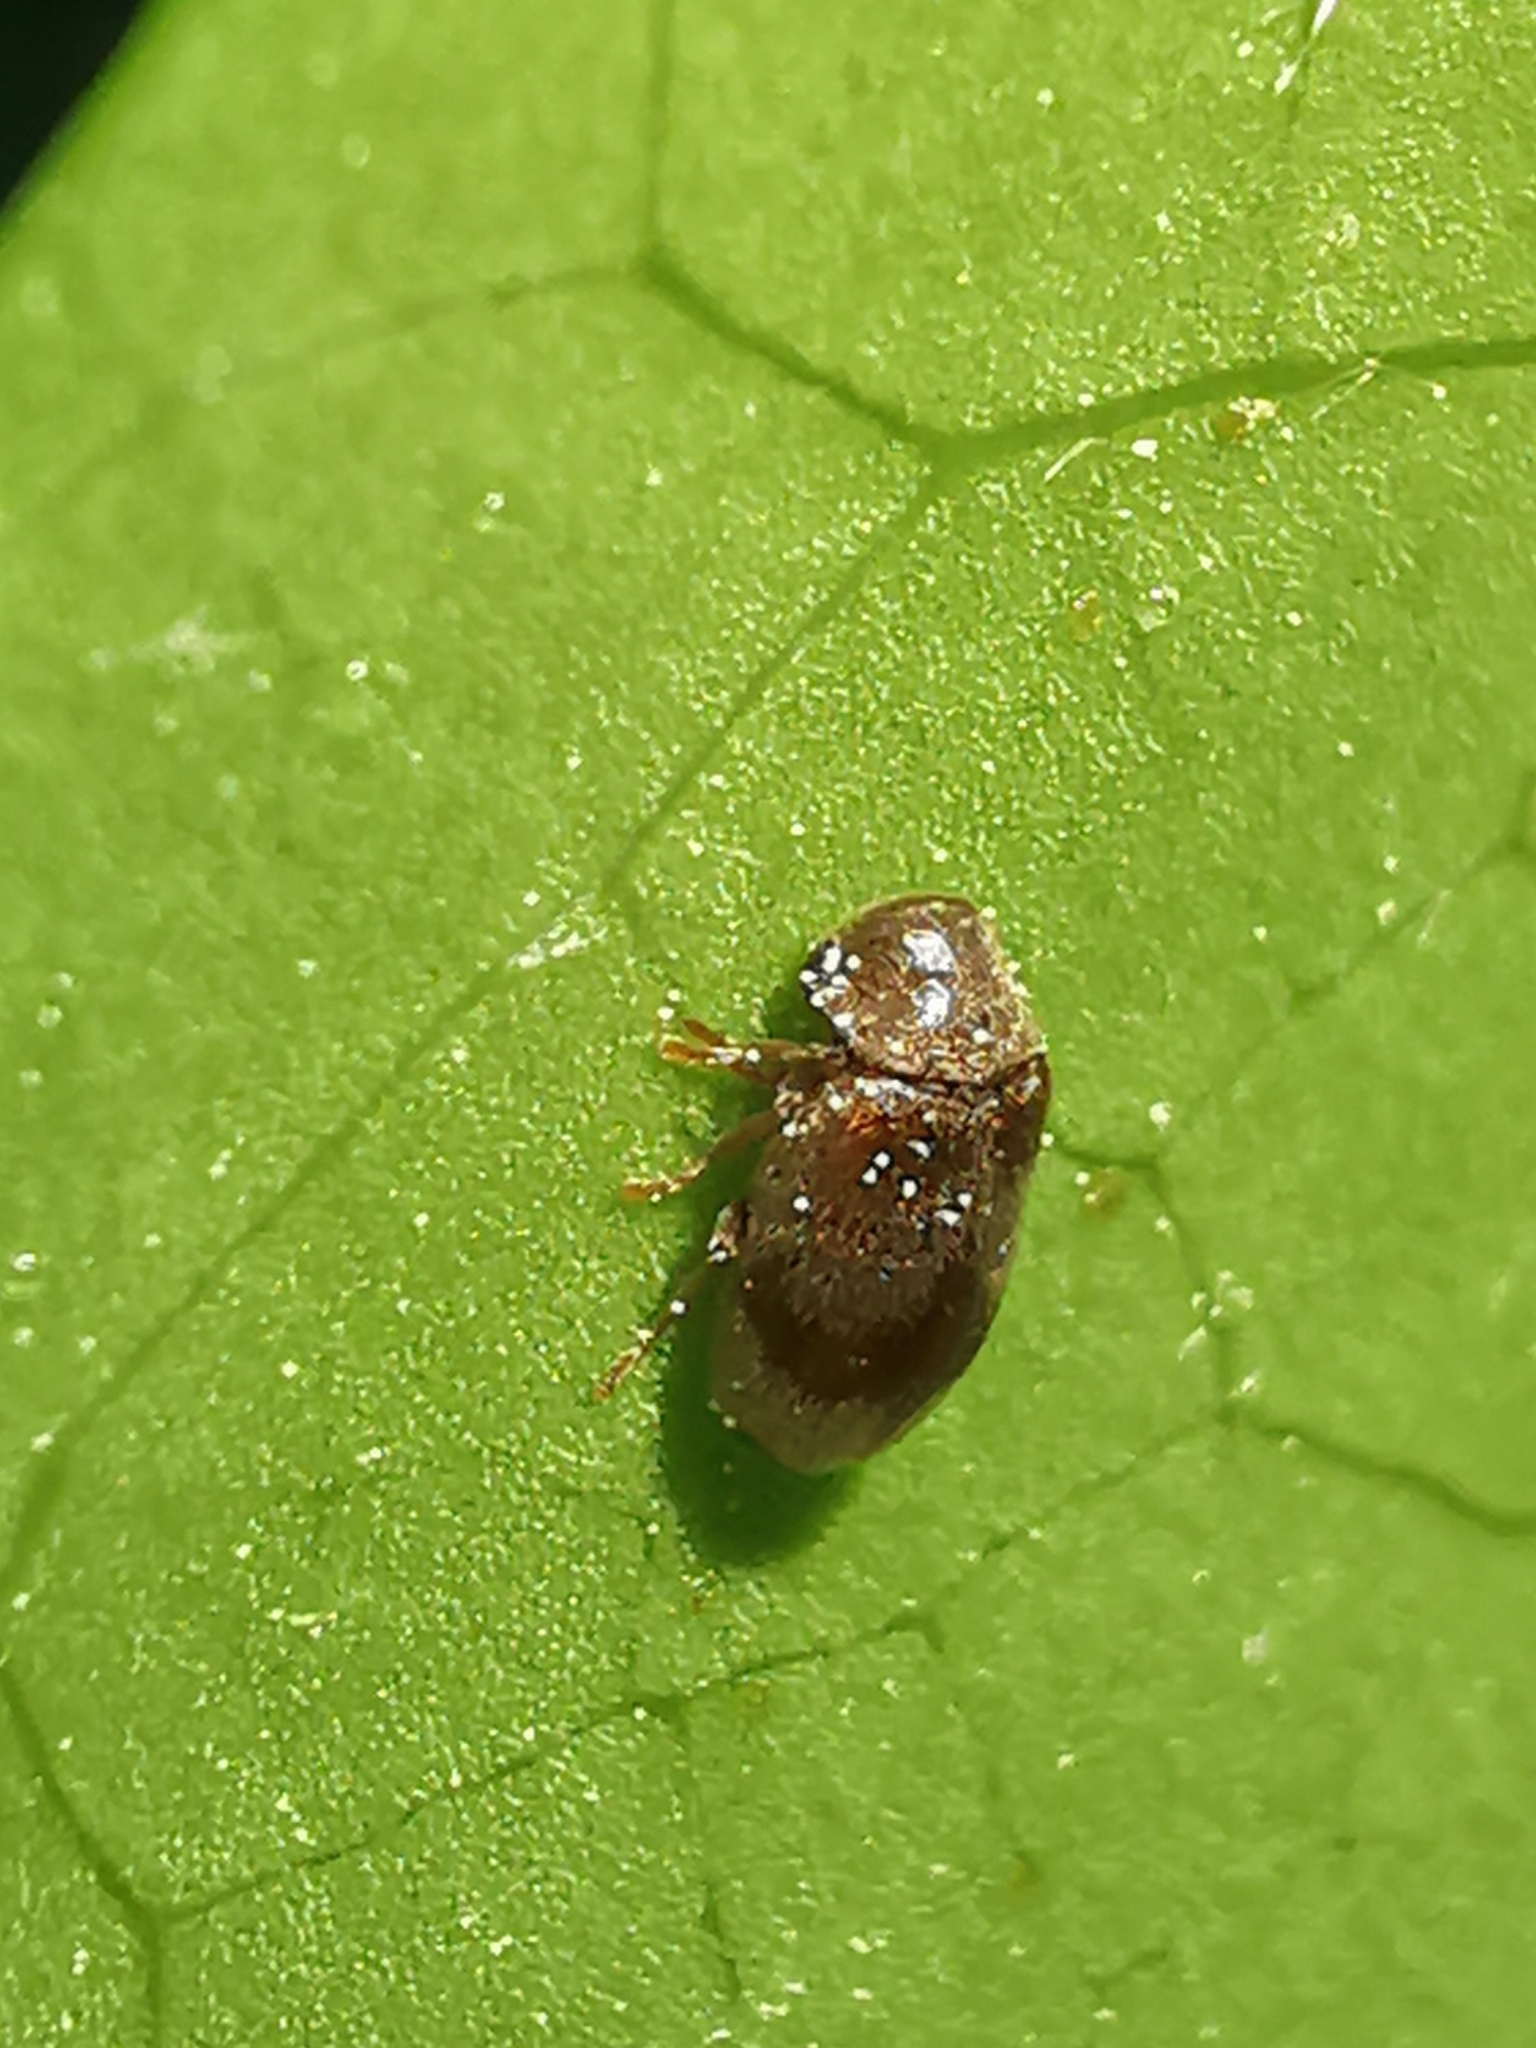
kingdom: Animalia
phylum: Arthropoda
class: Insecta
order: Coleoptera
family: Ptinidae
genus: Ochina
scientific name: Ochina ptinoides
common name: Ivy boring beetle
